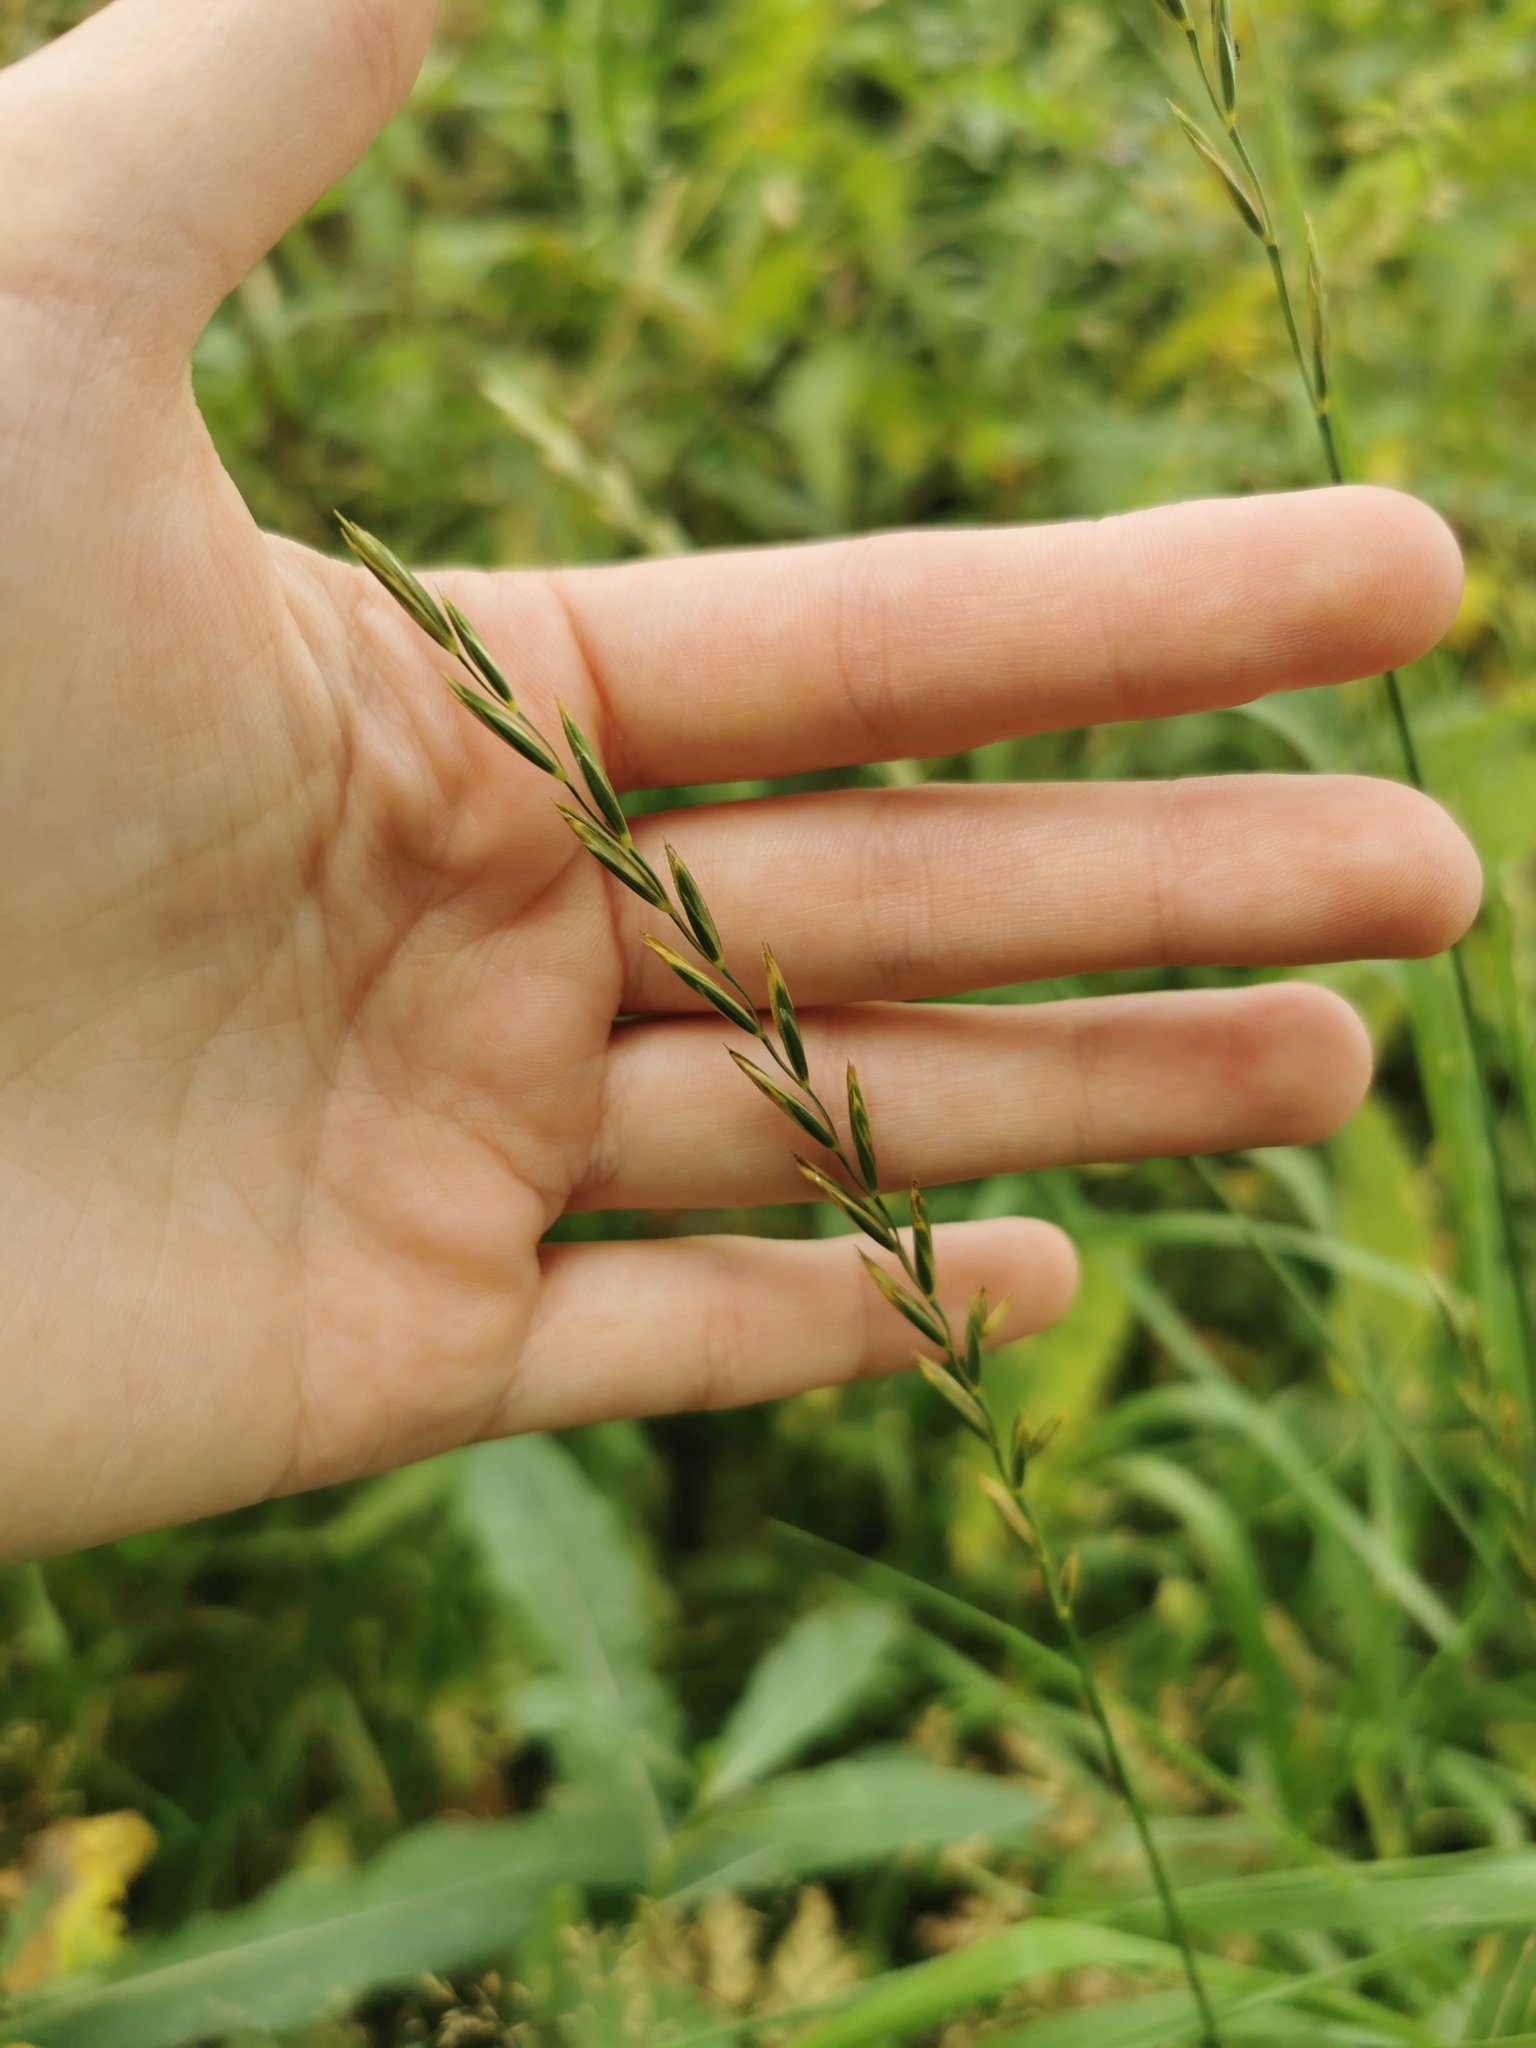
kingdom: Plantae
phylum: Tracheophyta
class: Liliopsida
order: Poales
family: Poaceae
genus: Elymus
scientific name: Elymus repens
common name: Quackgrass
